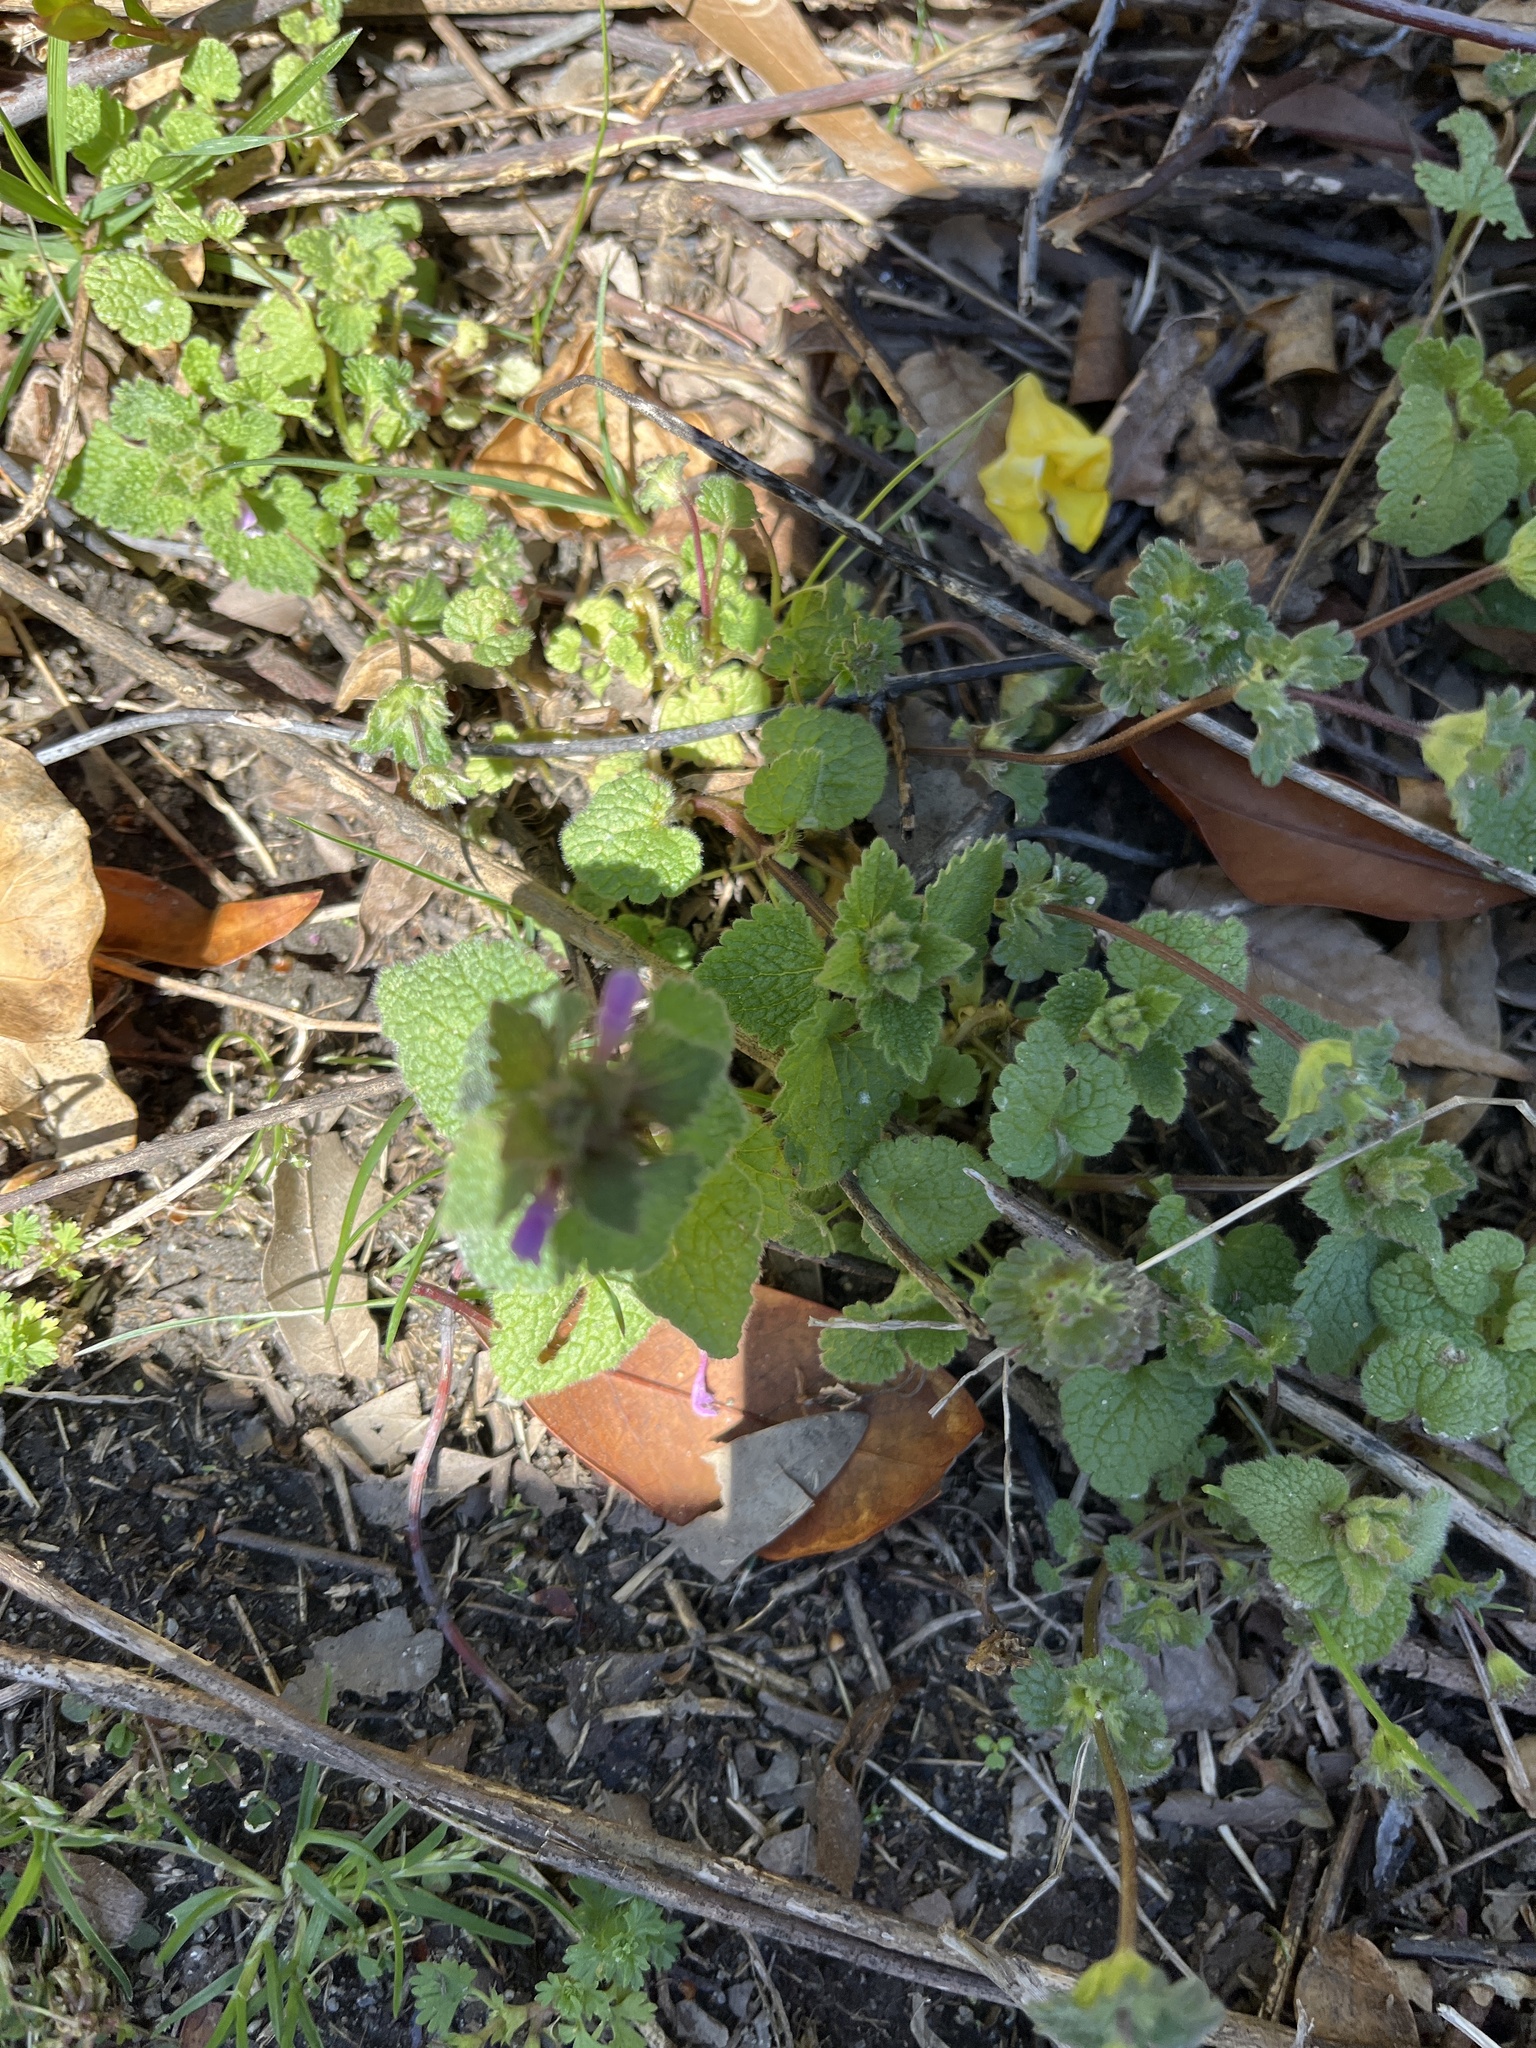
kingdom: Plantae
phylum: Tracheophyta
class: Magnoliopsida
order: Lamiales
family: Lamiaceae
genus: Lamium
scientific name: Lamium purpureum
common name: Red dead-nettle
